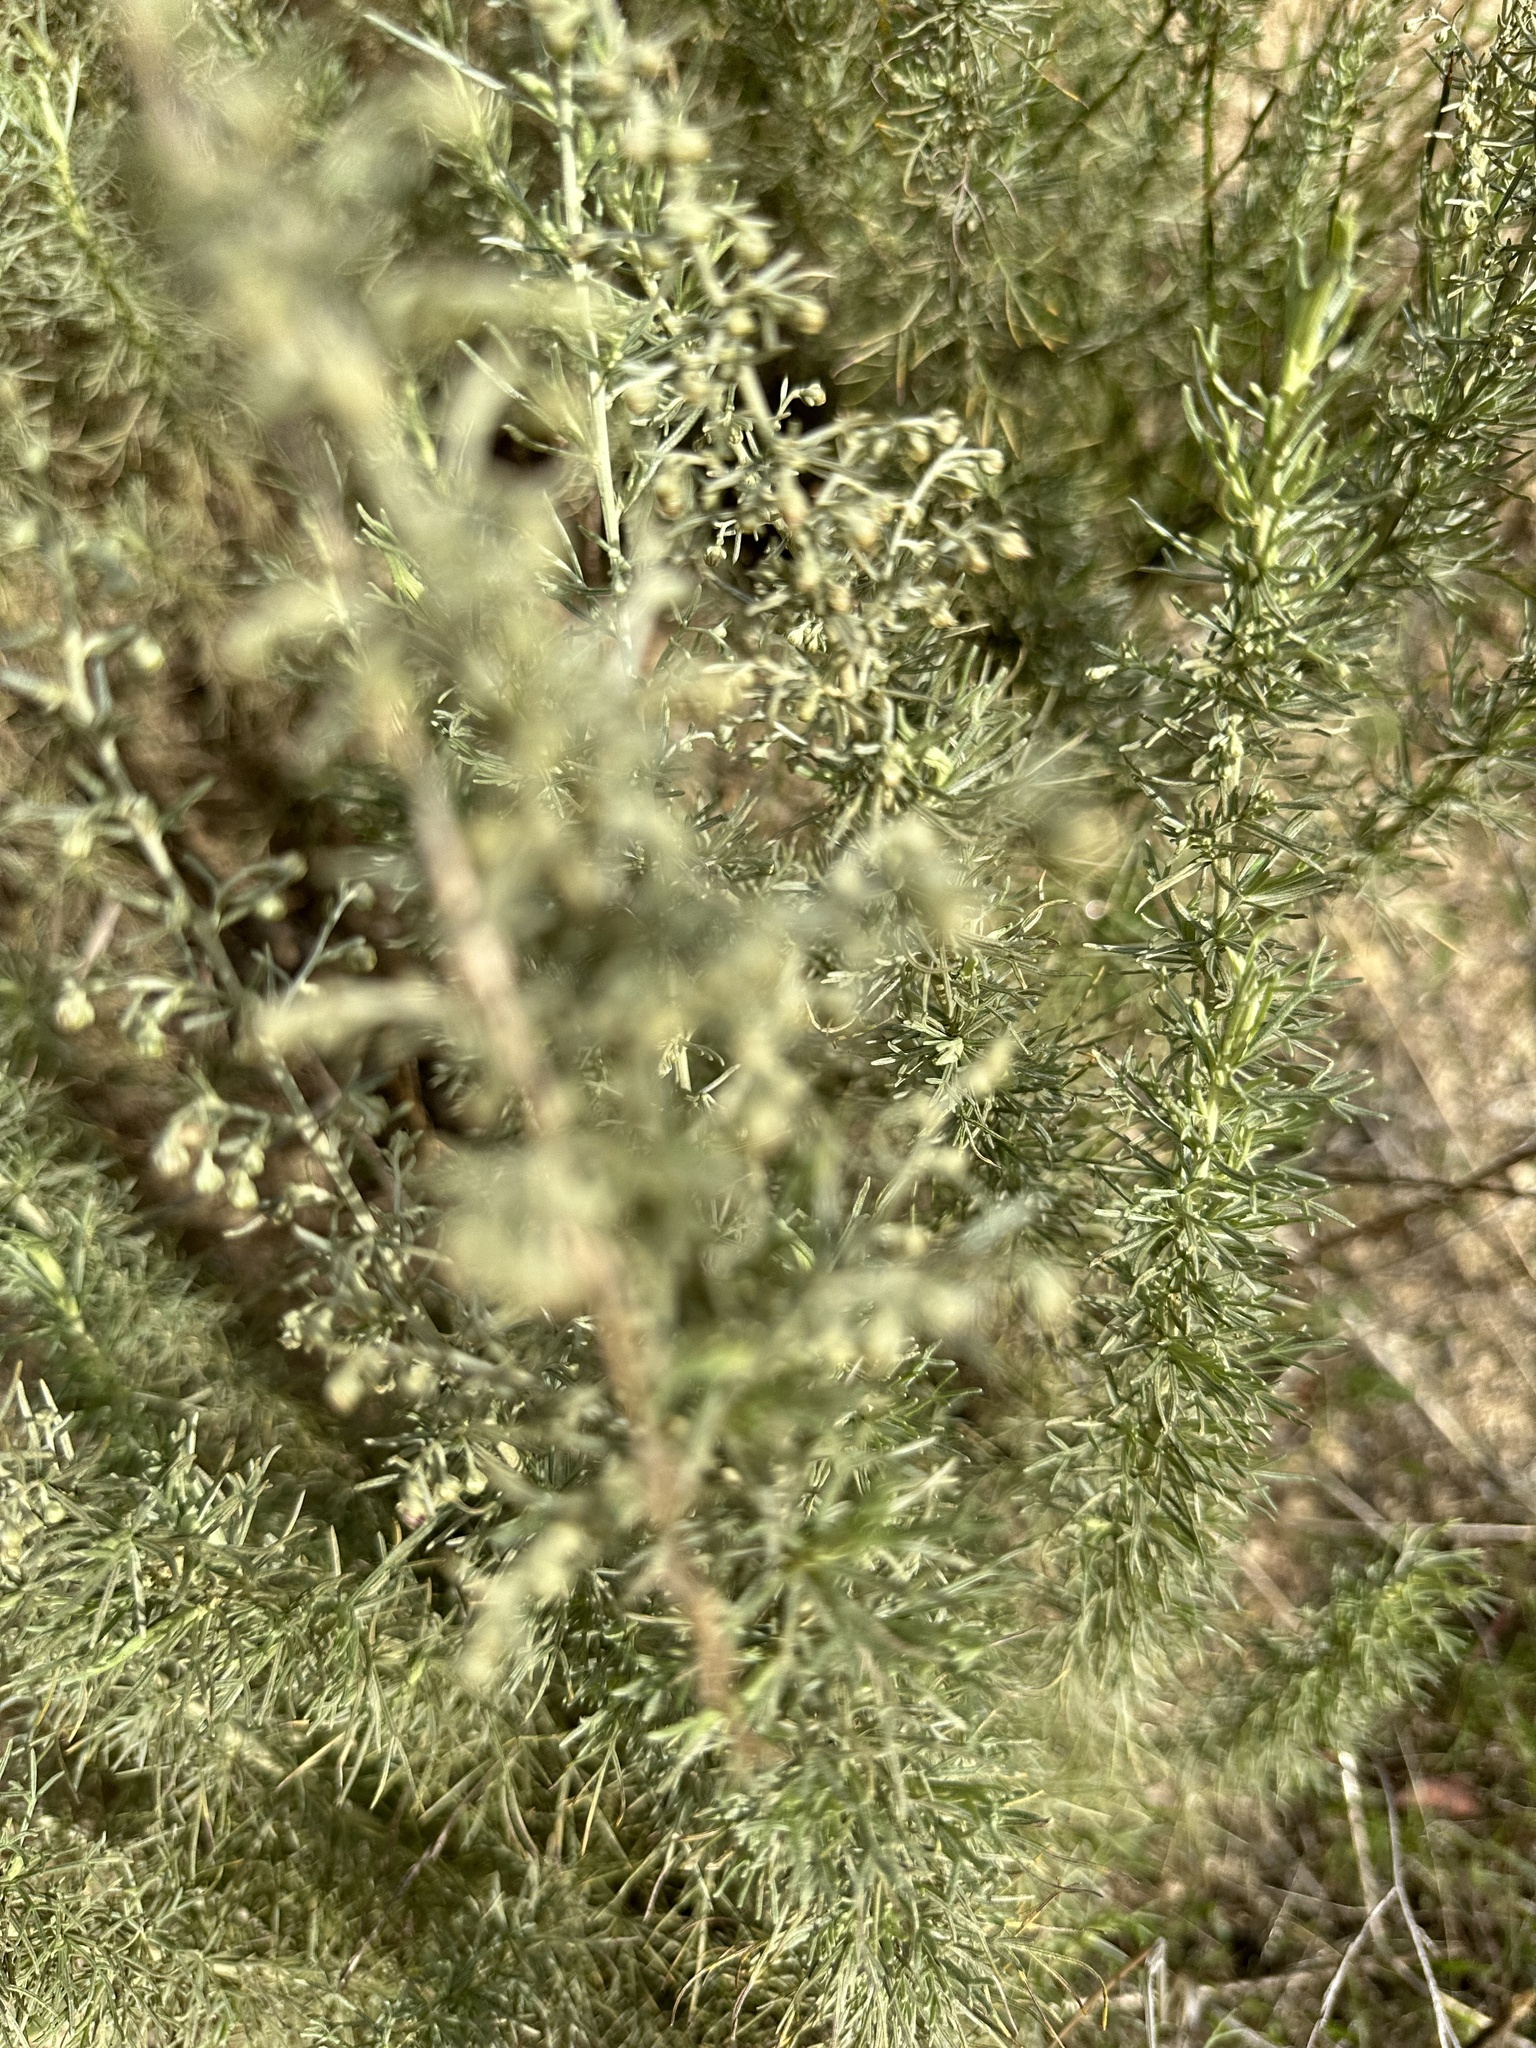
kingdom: Plantae
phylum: Tracheophyta
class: Magnoliopsida
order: Asterales
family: Asteraceae
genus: Artemisia
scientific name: Artemisia californica
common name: California sagebrush
